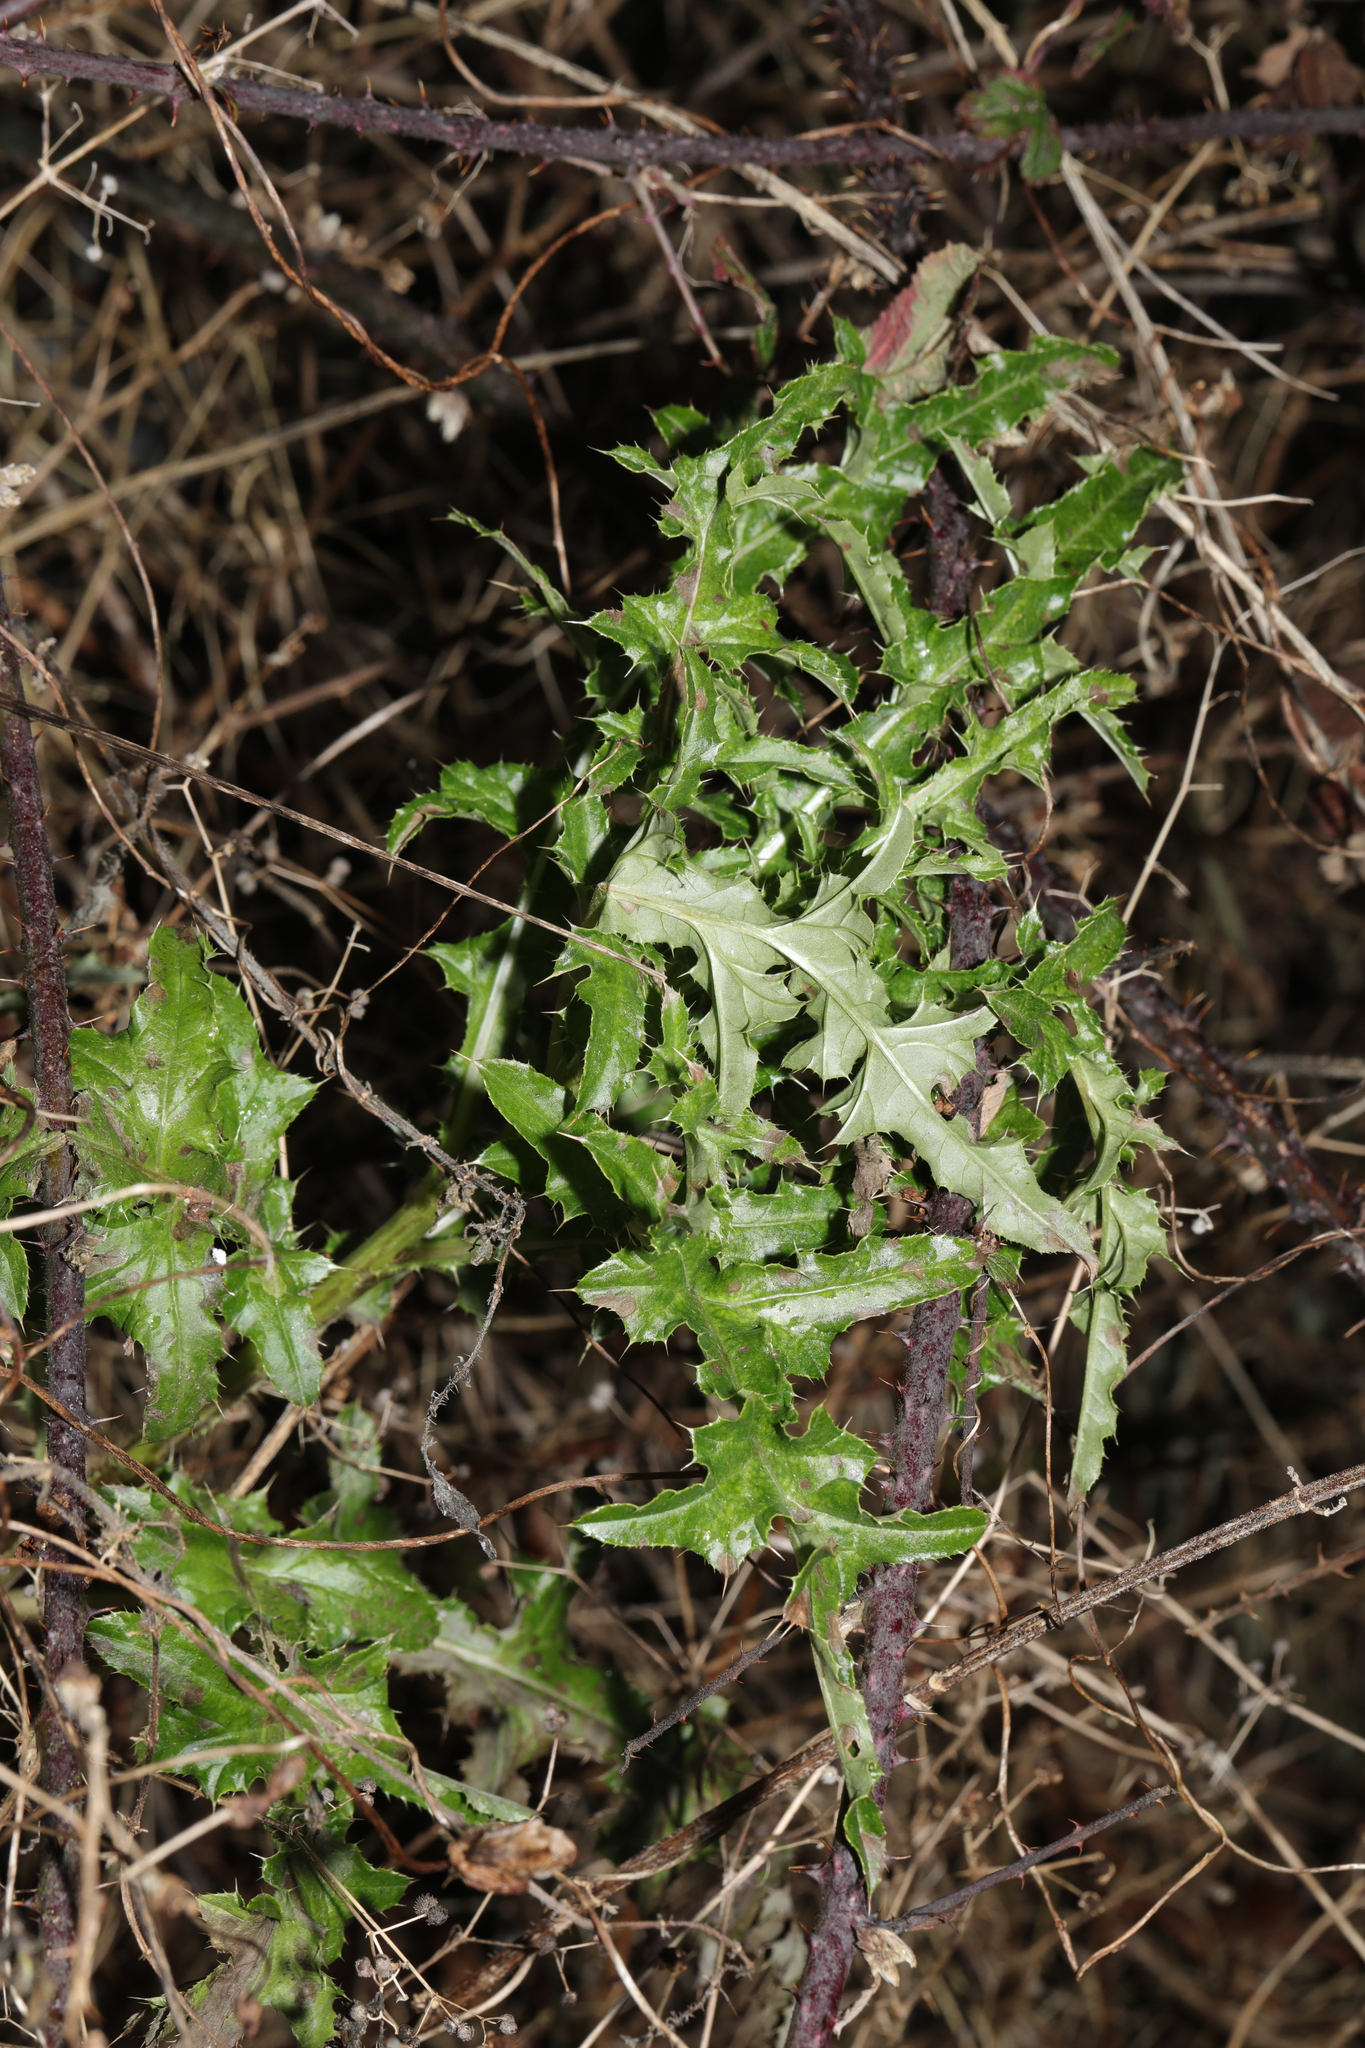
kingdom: Plantae
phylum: Tracheophyta
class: Magnoliopsida
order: Asterales
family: Asteraceae
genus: Cirsium
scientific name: Cirsium arvense
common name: Creeping thistle
